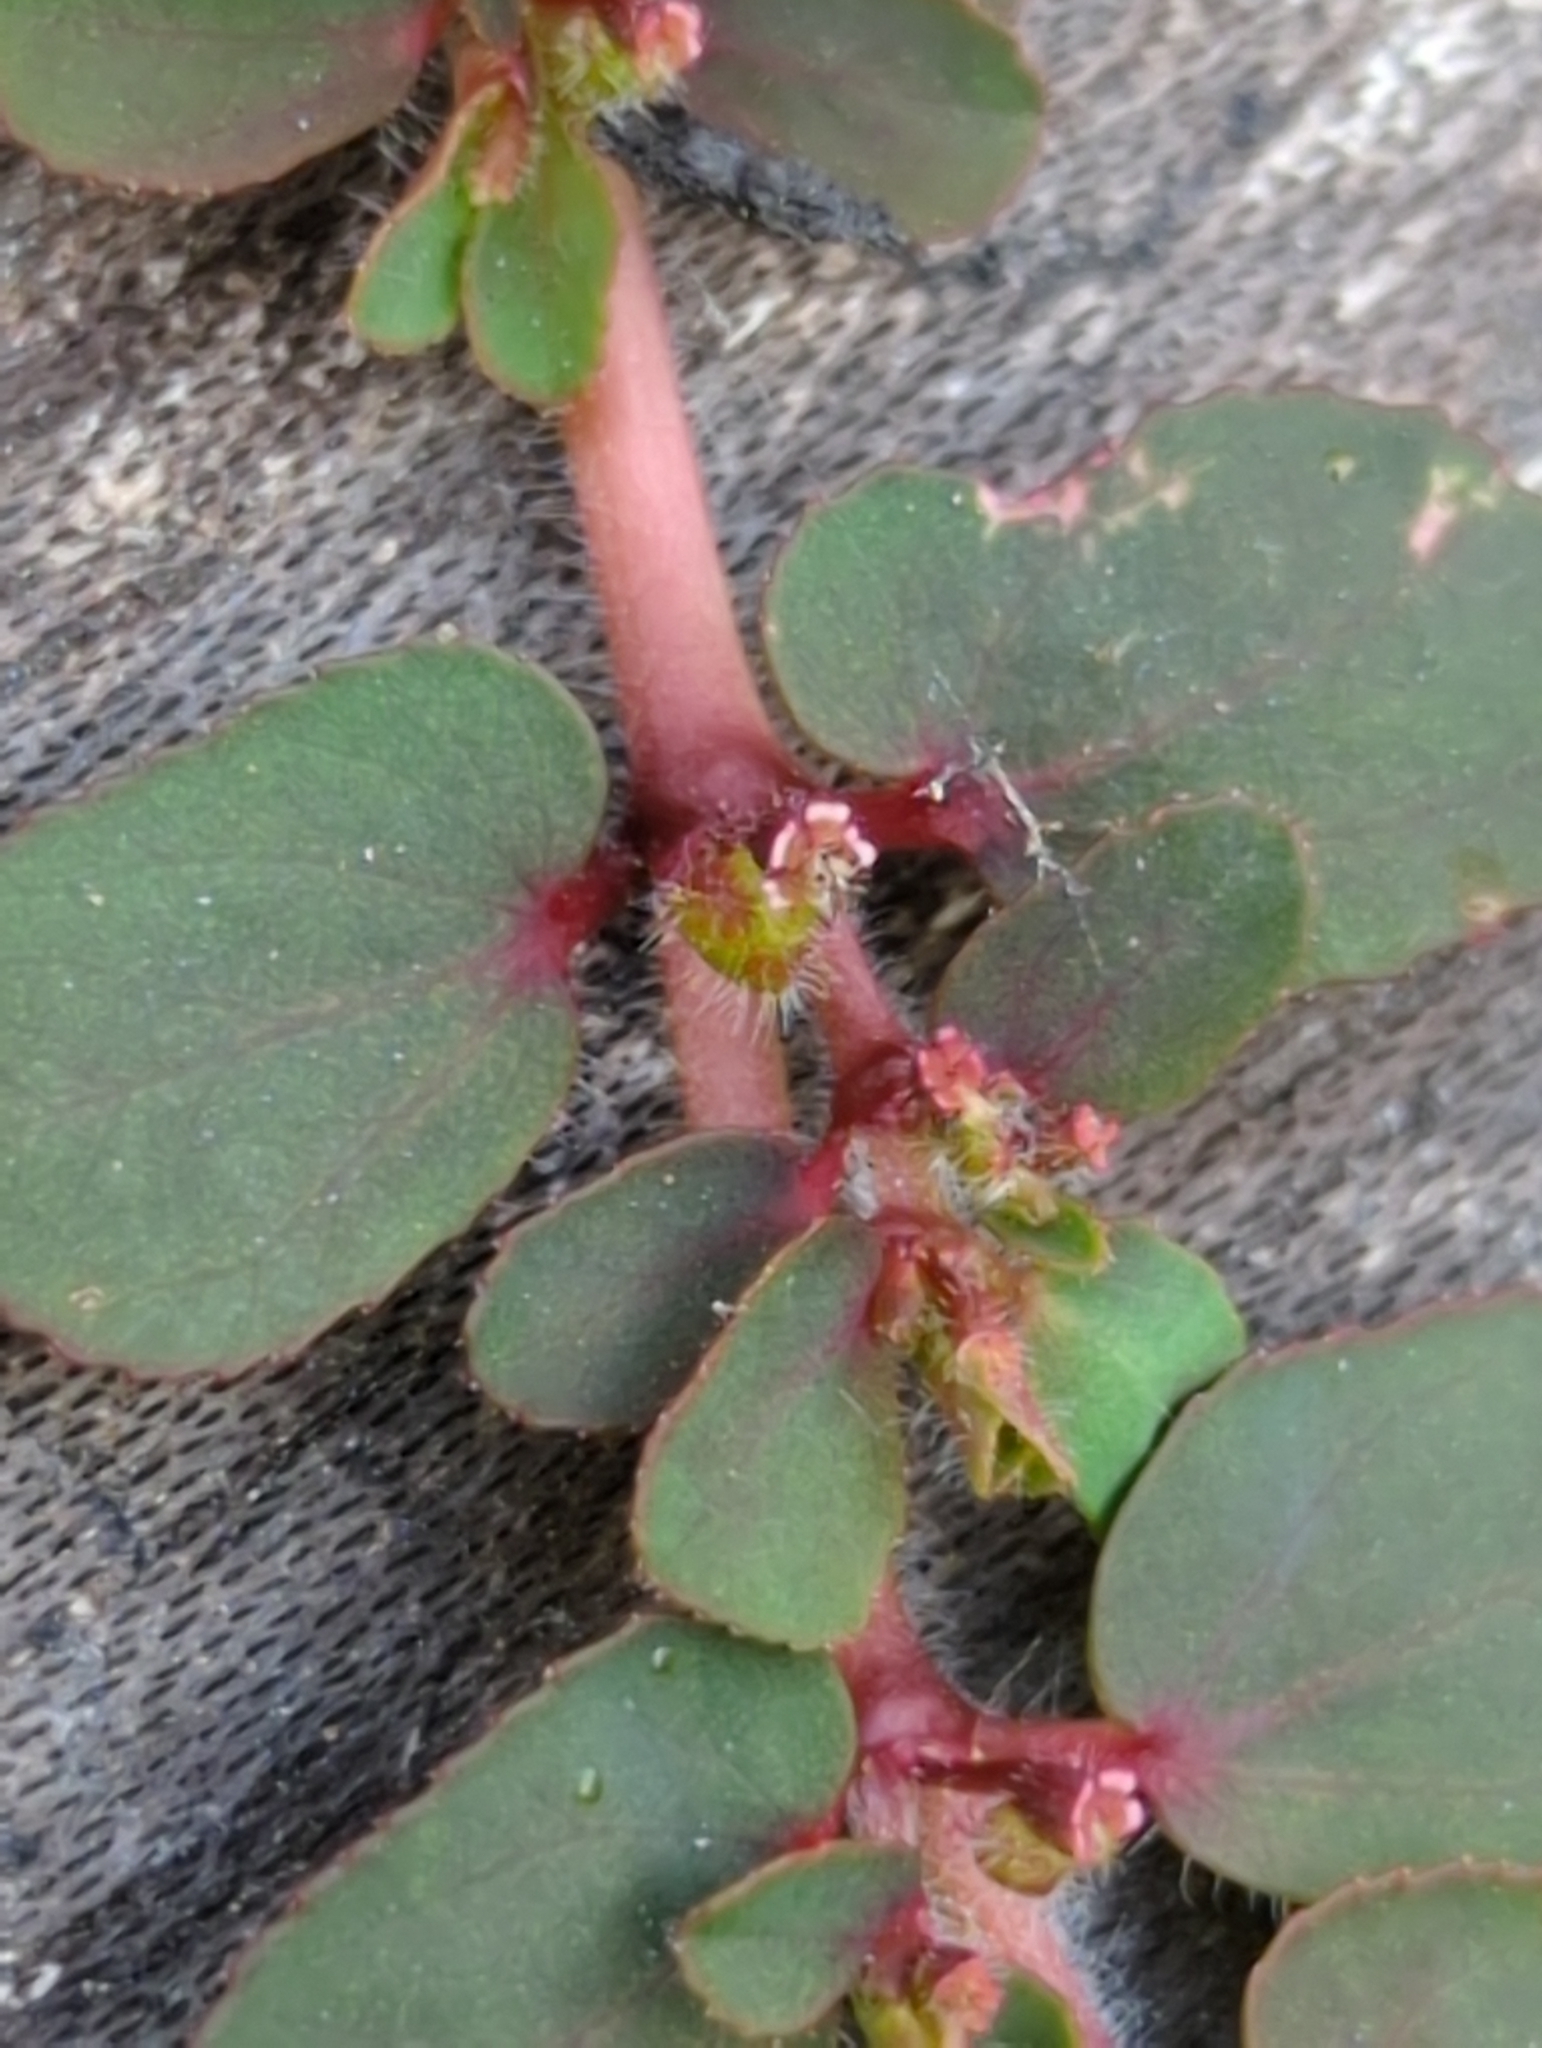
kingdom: Plantae
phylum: Tracheophyta
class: Magnoliopsida
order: Malpighiales
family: Euphorbiaceae
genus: Euphorbia
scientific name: Euphorbia mendezii
